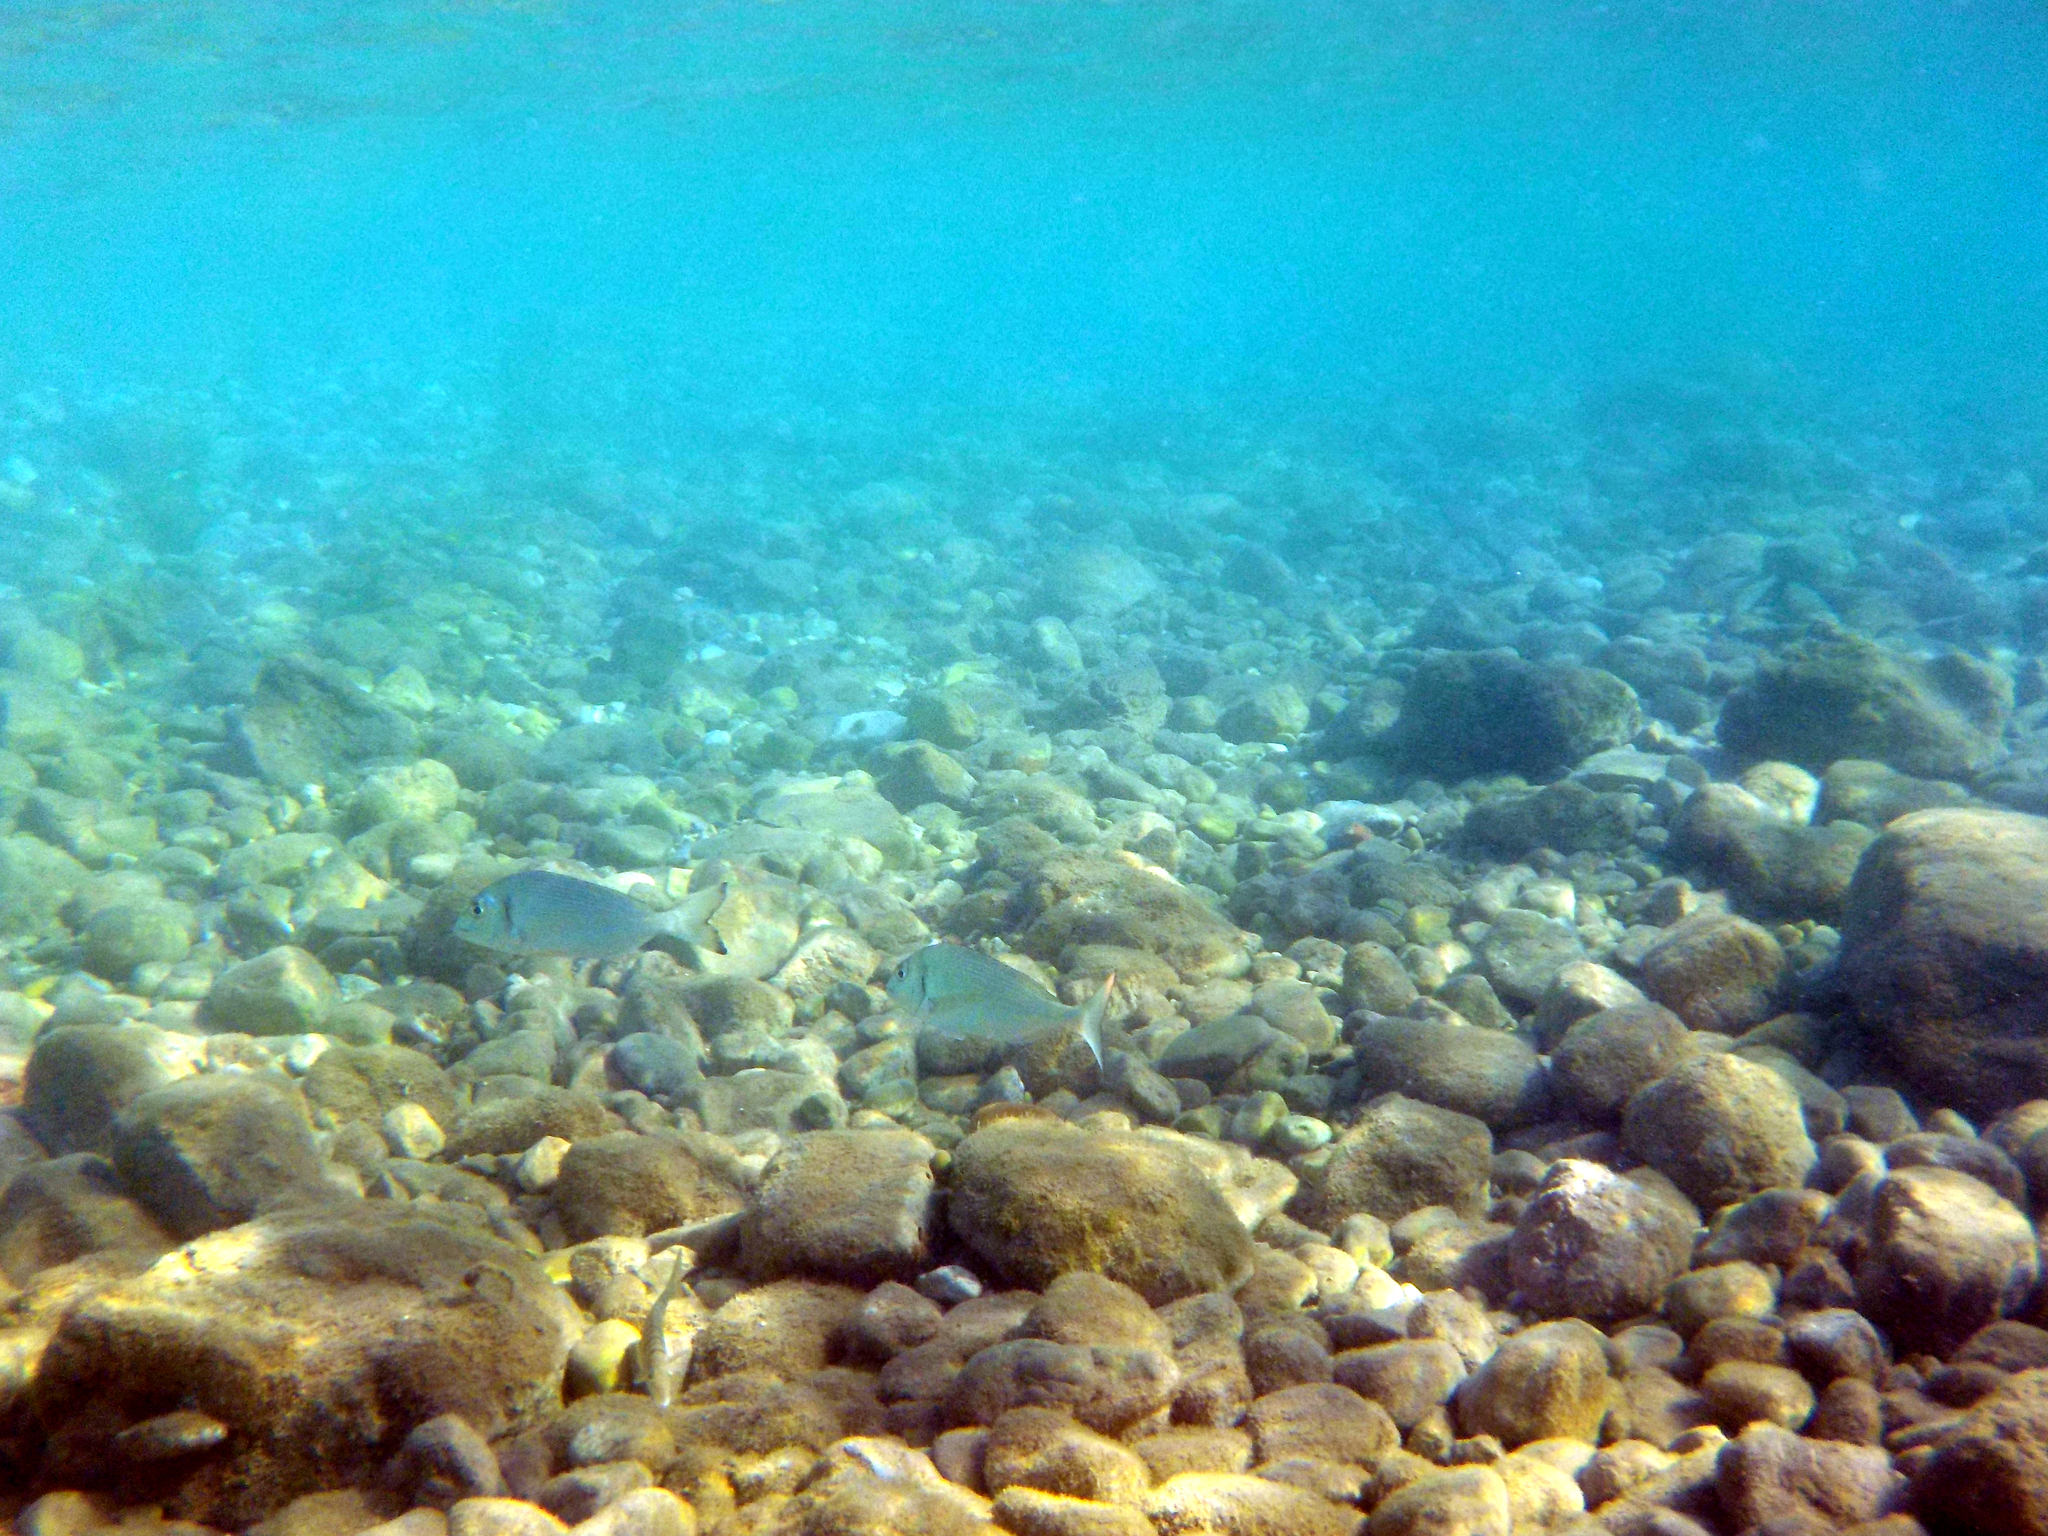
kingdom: Animalia
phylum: Chordata
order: Perciformes
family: Sparidae
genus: Sparus
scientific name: Sparus aurata
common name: Gilthead
